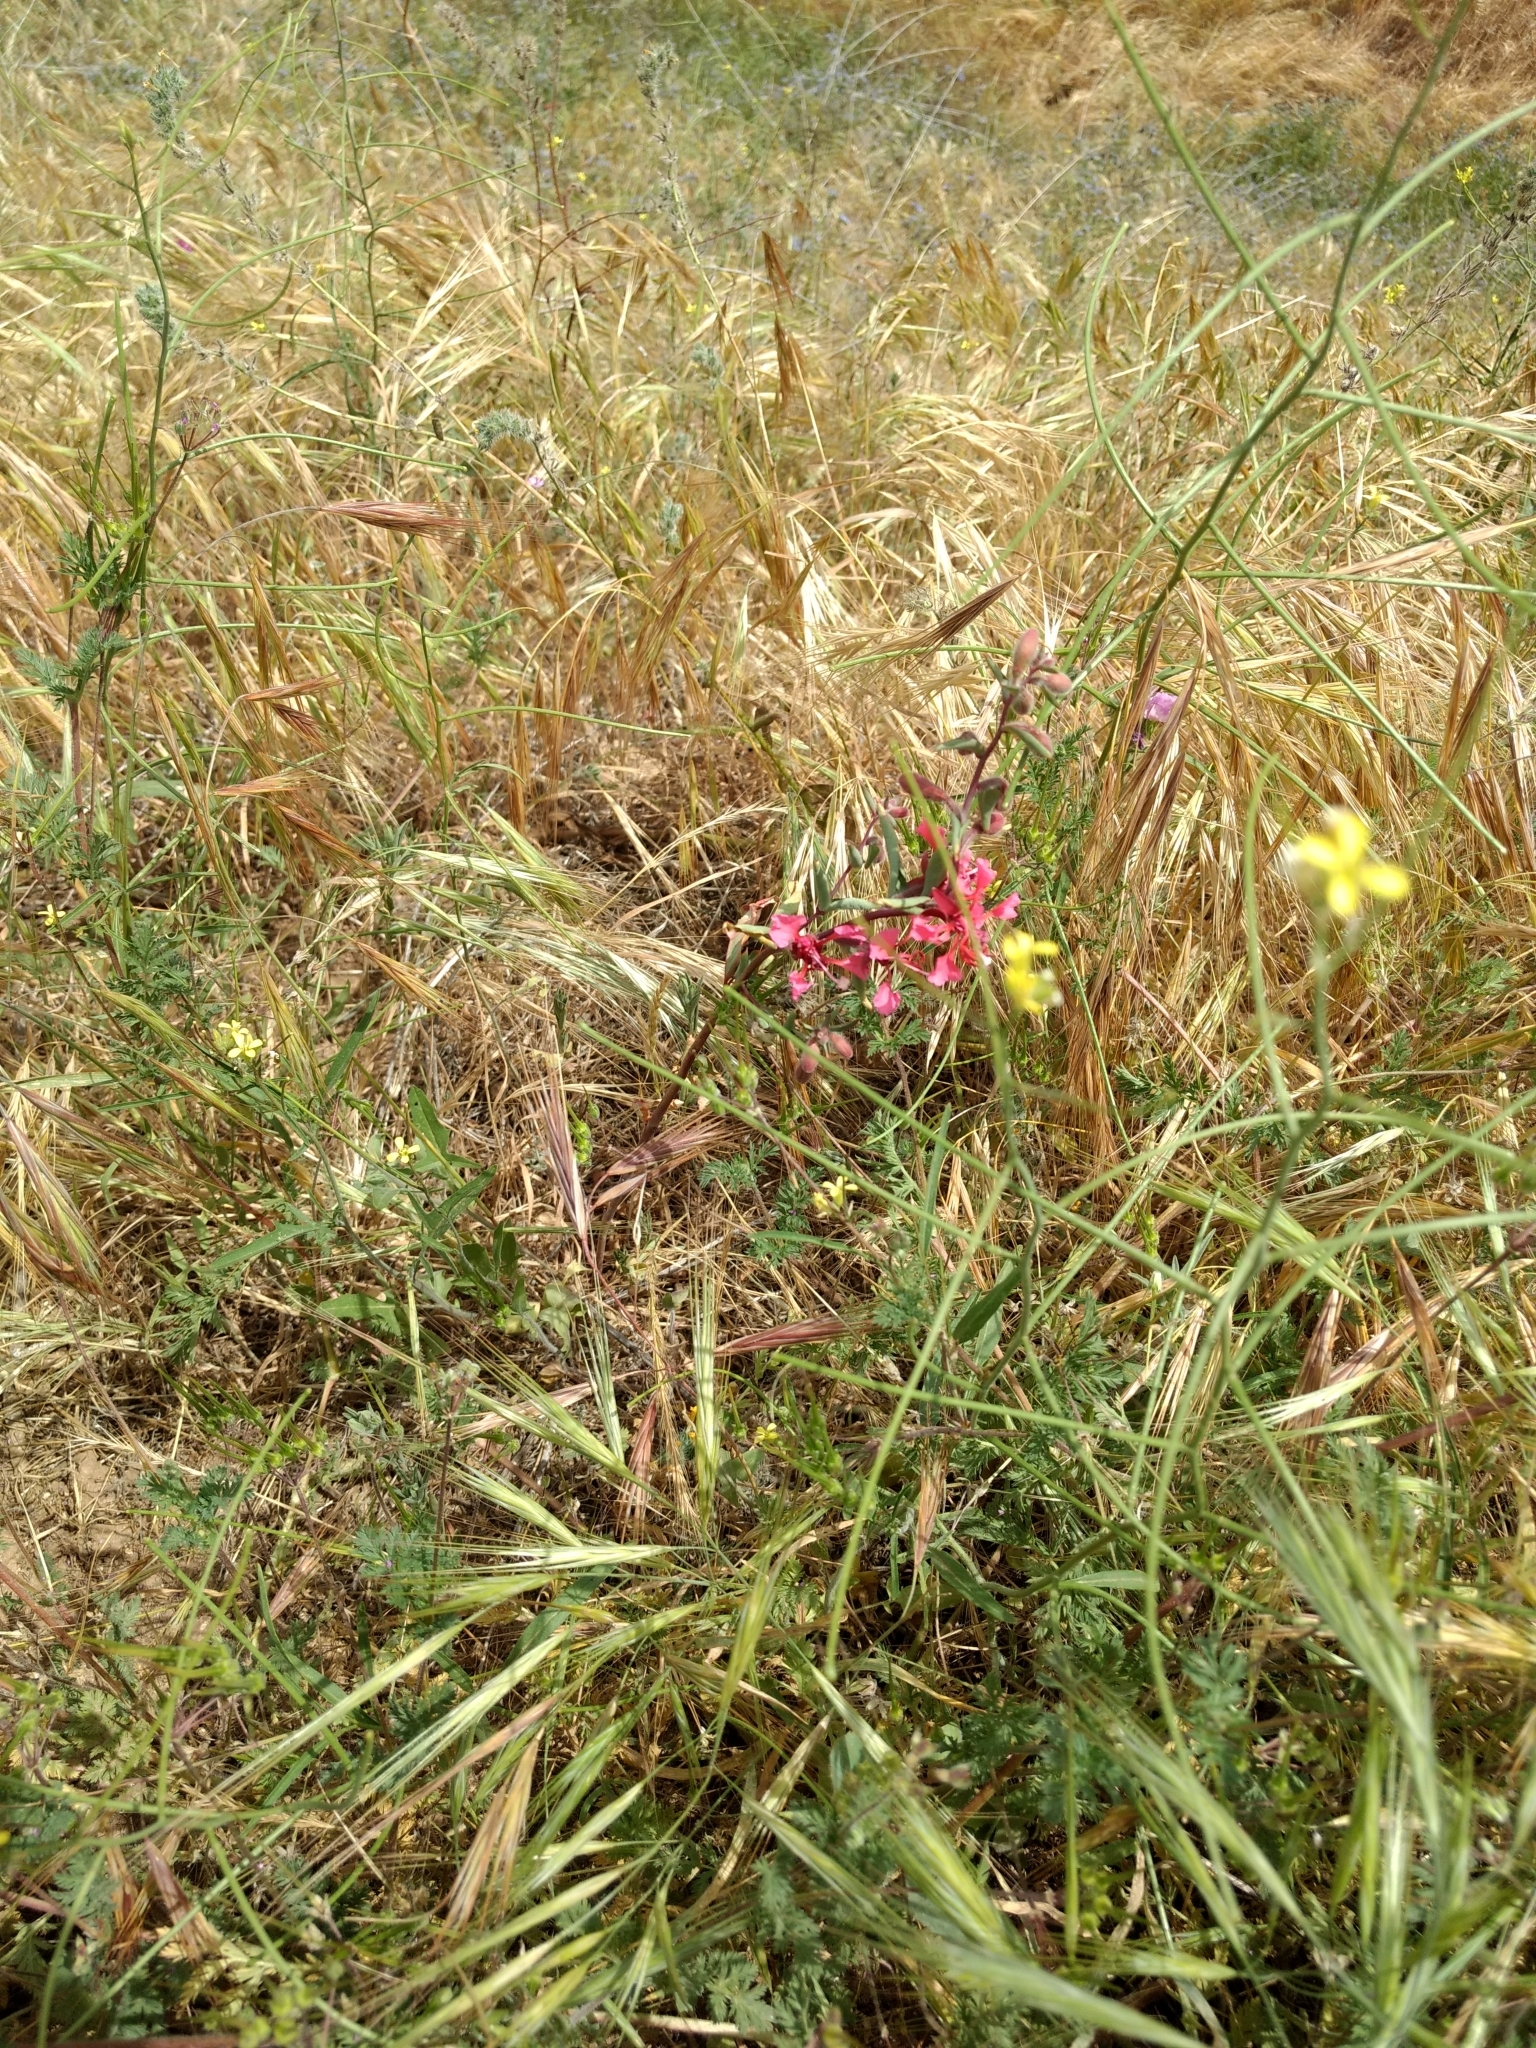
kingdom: Plantae
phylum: Tracheophyta
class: Magnoliopsida
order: Myrtales
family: Onagraceae
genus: Clarkia
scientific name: Clarkia unguiculata
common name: Clarkia
